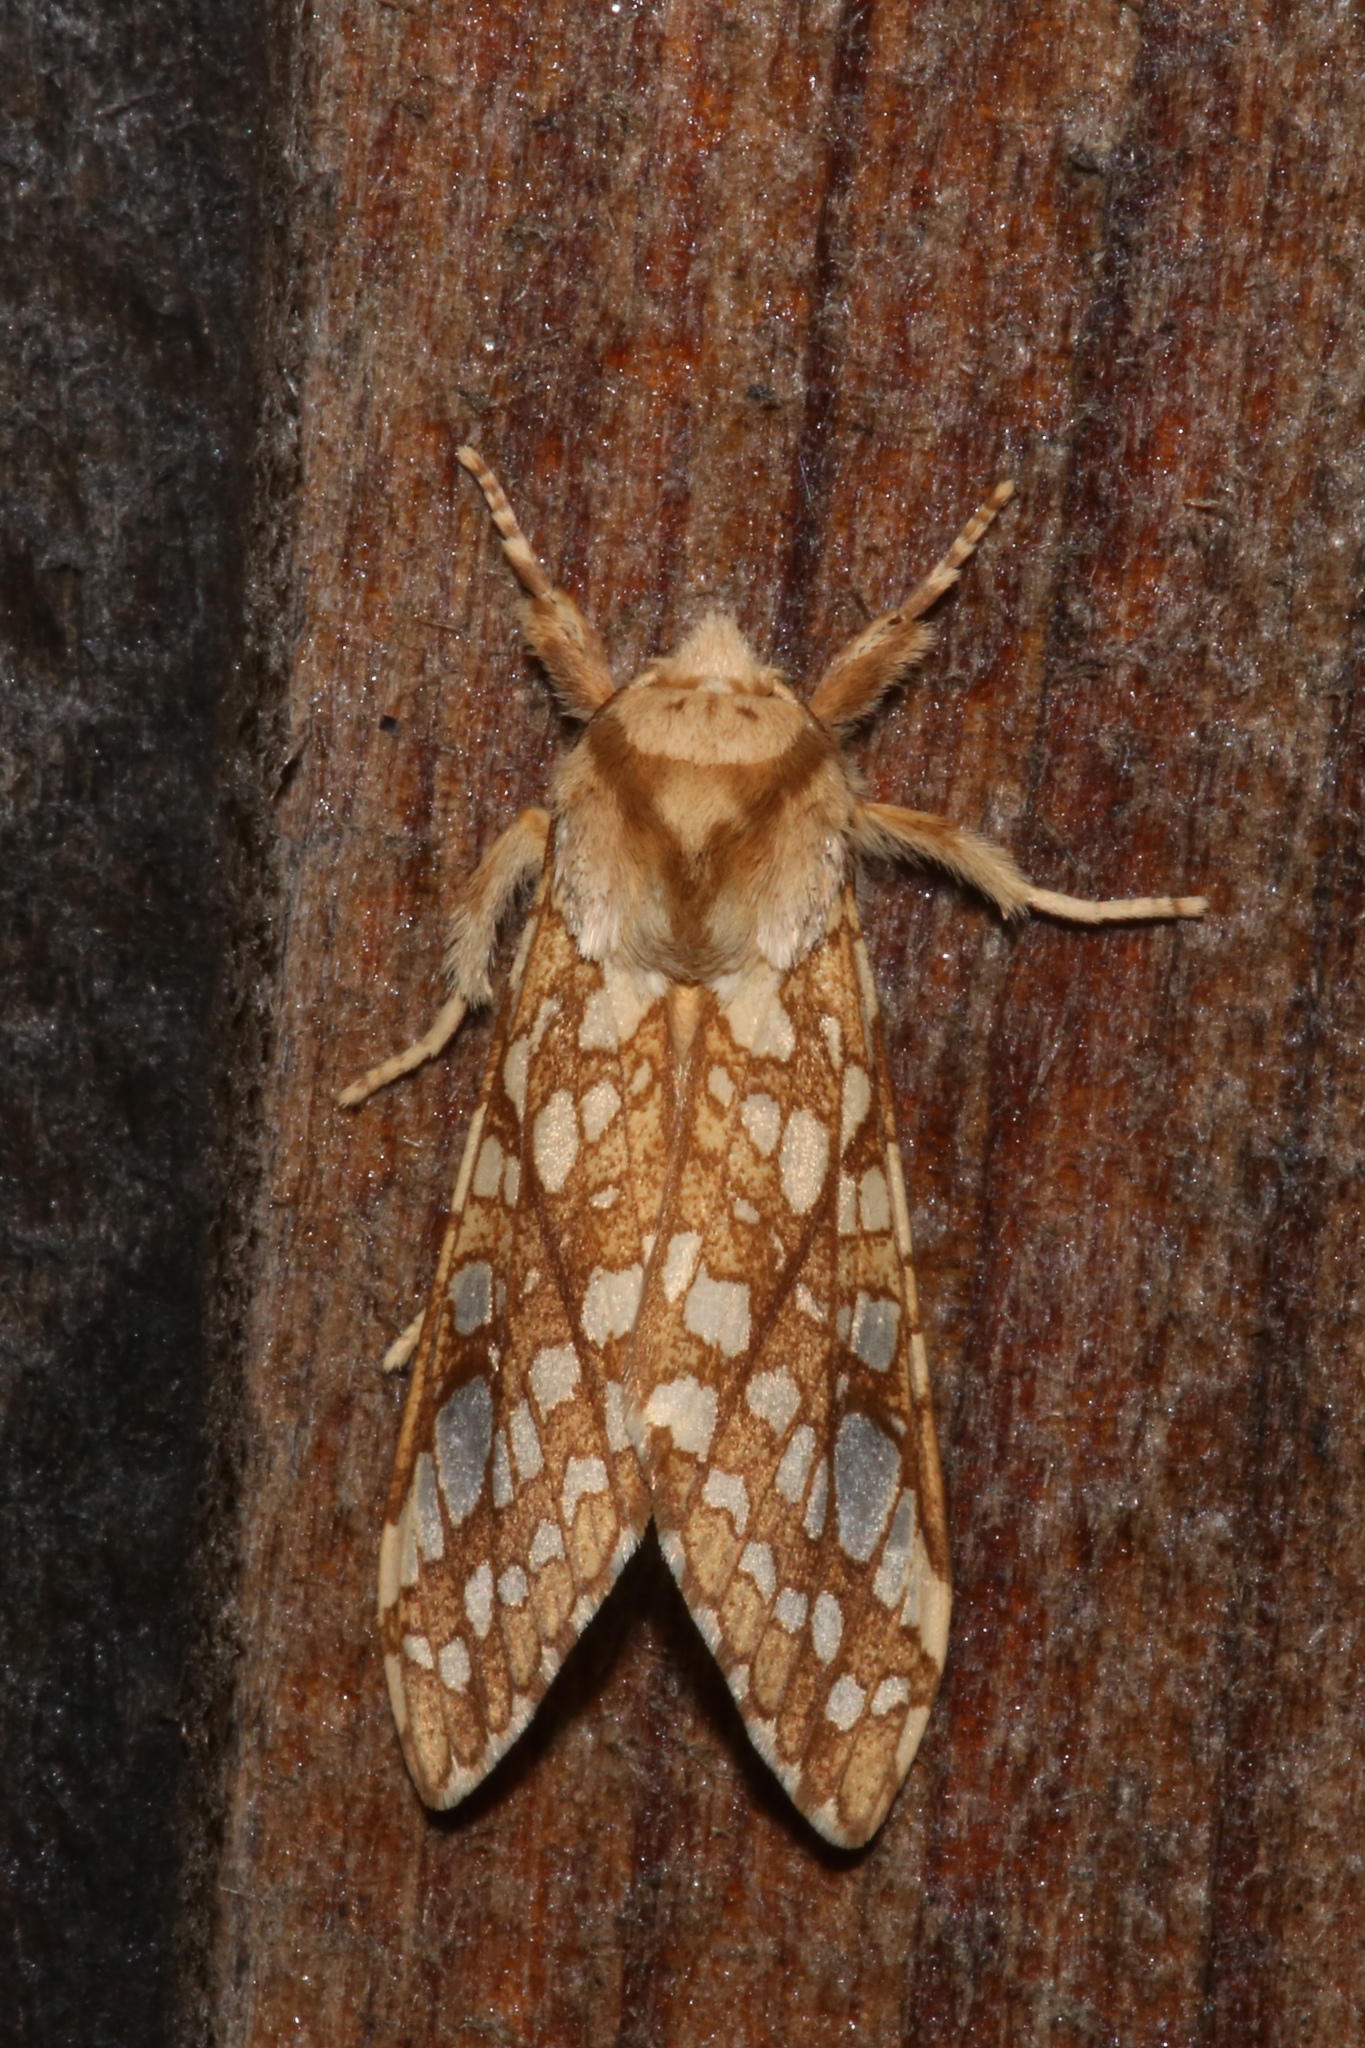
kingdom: Animalia
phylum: Arthropoda
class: Insecta
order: Lepidoptera
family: Erebidae
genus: Lophocampa
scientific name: Lophocampa caryae
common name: Hickory tussock moth
